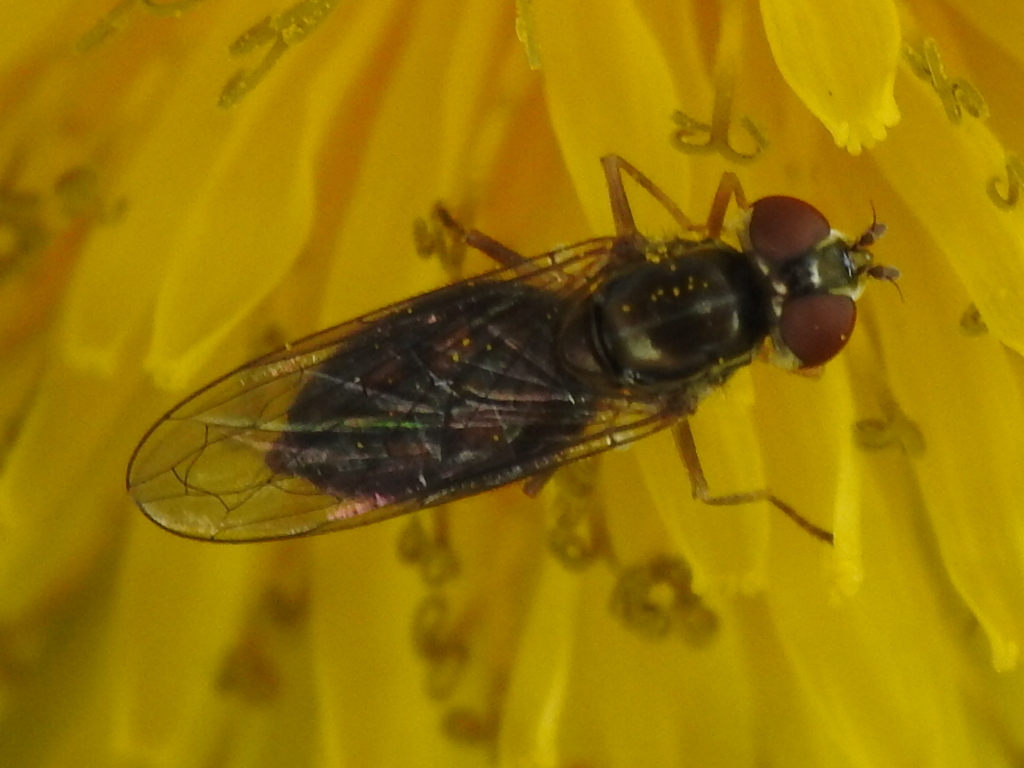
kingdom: Animalia
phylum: Arthropoda
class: Insecta
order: Diptera
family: Syrphidae
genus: Toxomerus
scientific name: Toxomerus marginatus
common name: Syrphid fly
